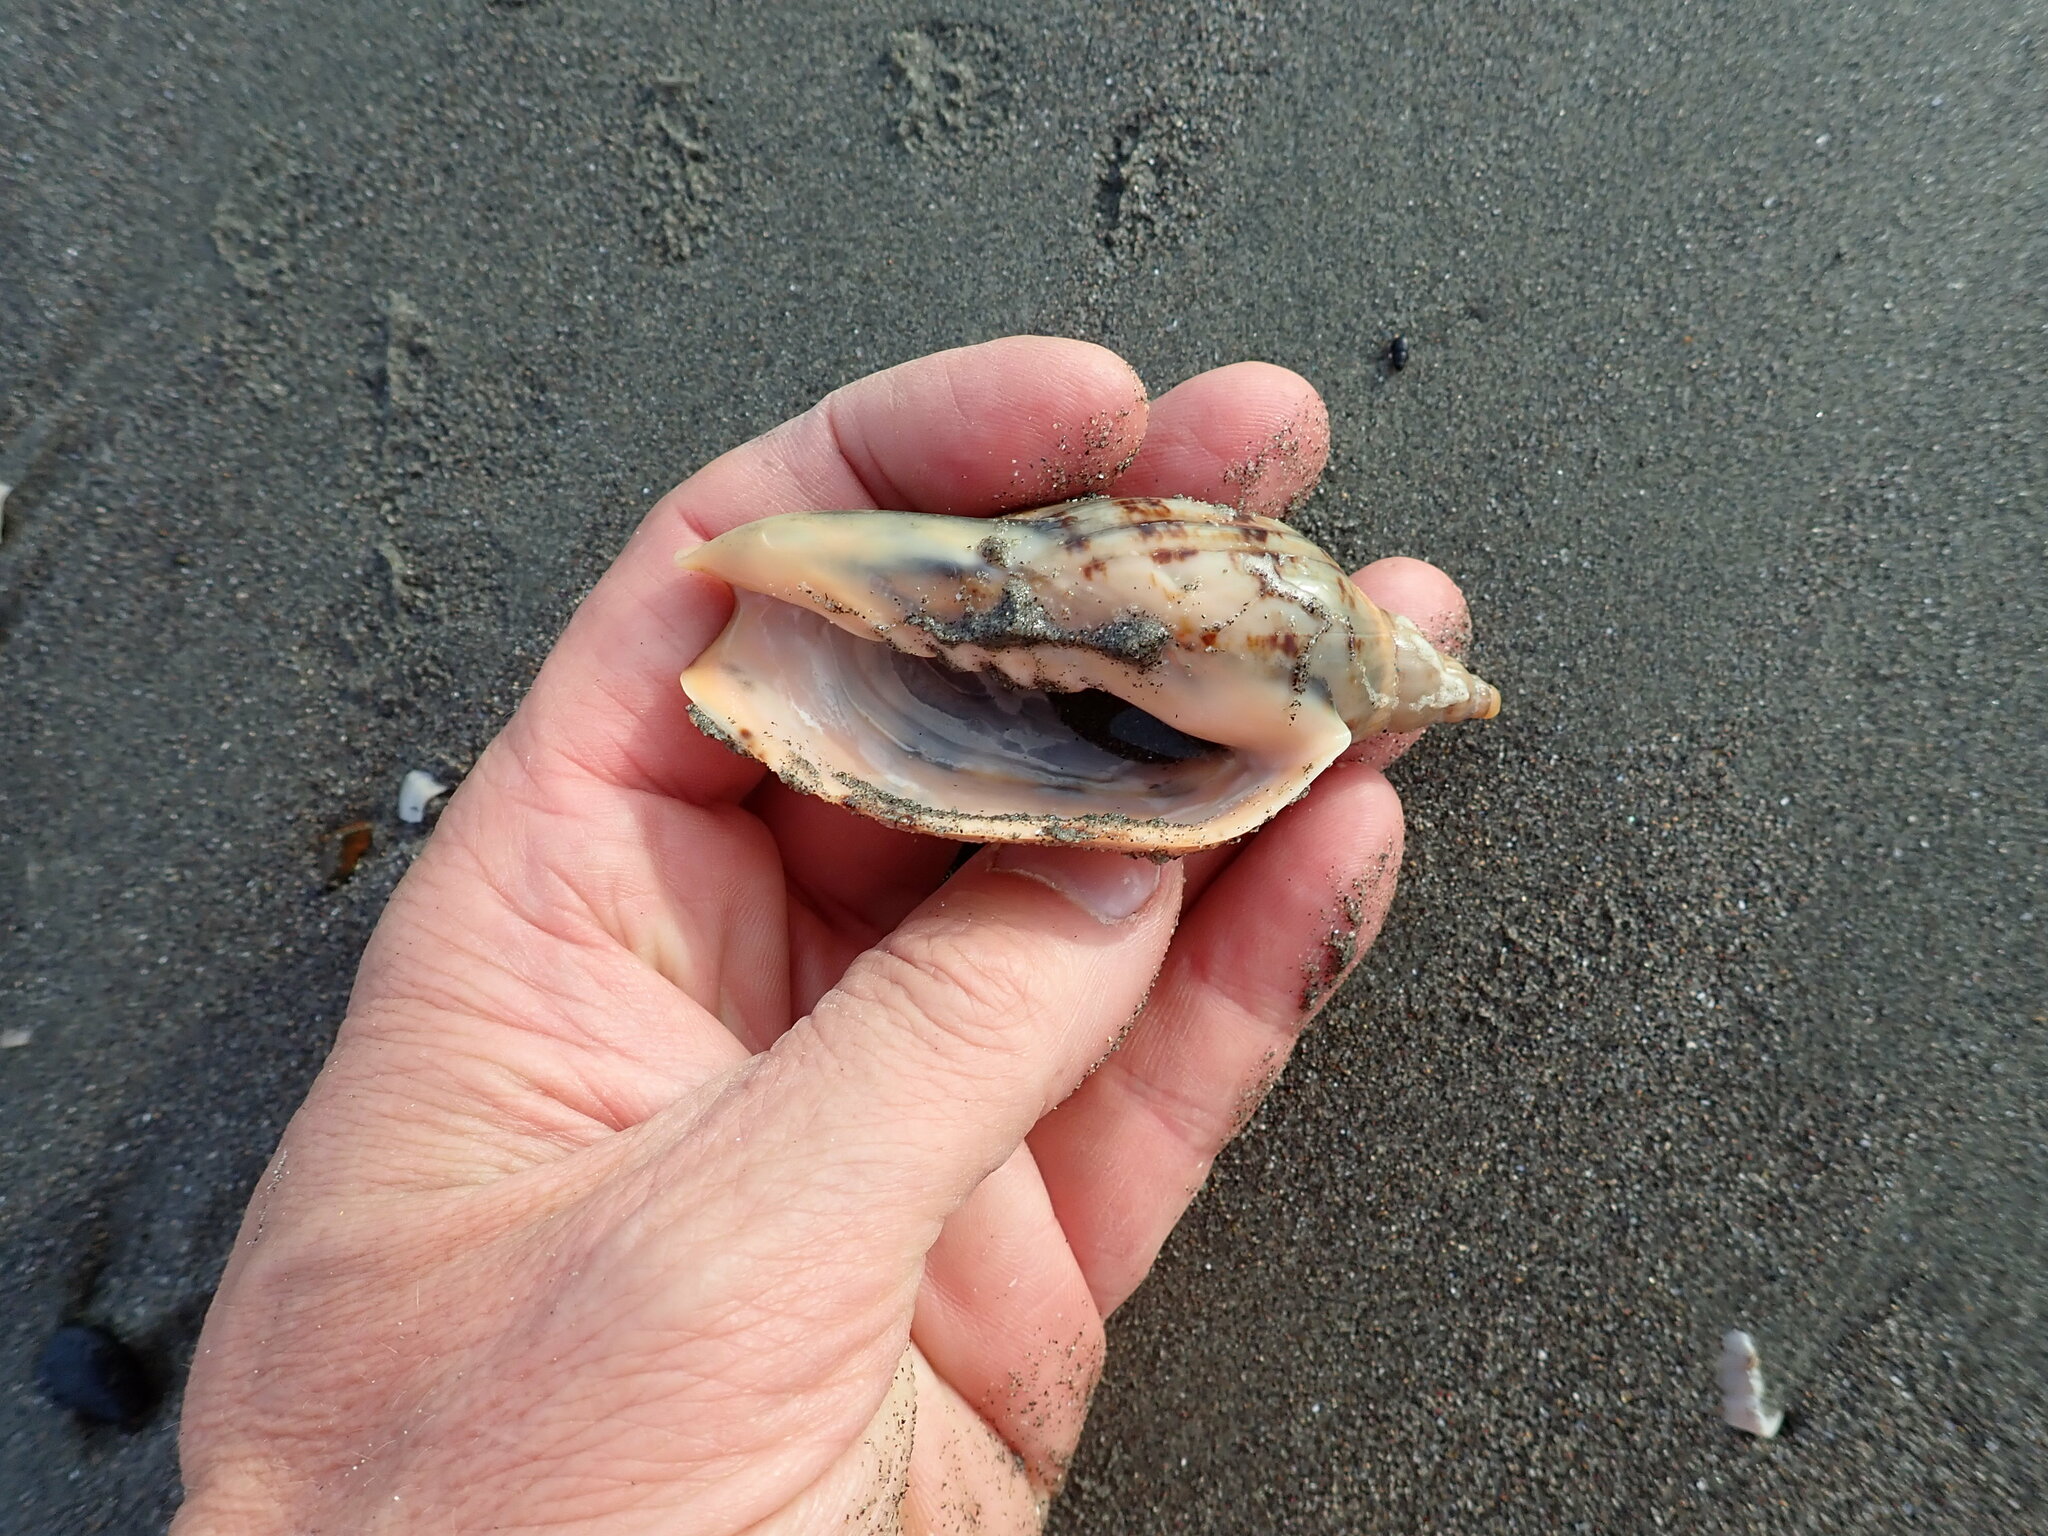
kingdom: Animalia
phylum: Mollusca
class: Gastropoda
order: Neogastropoda
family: Volutidae
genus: Alcithoe
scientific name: Alcithoe arabica
